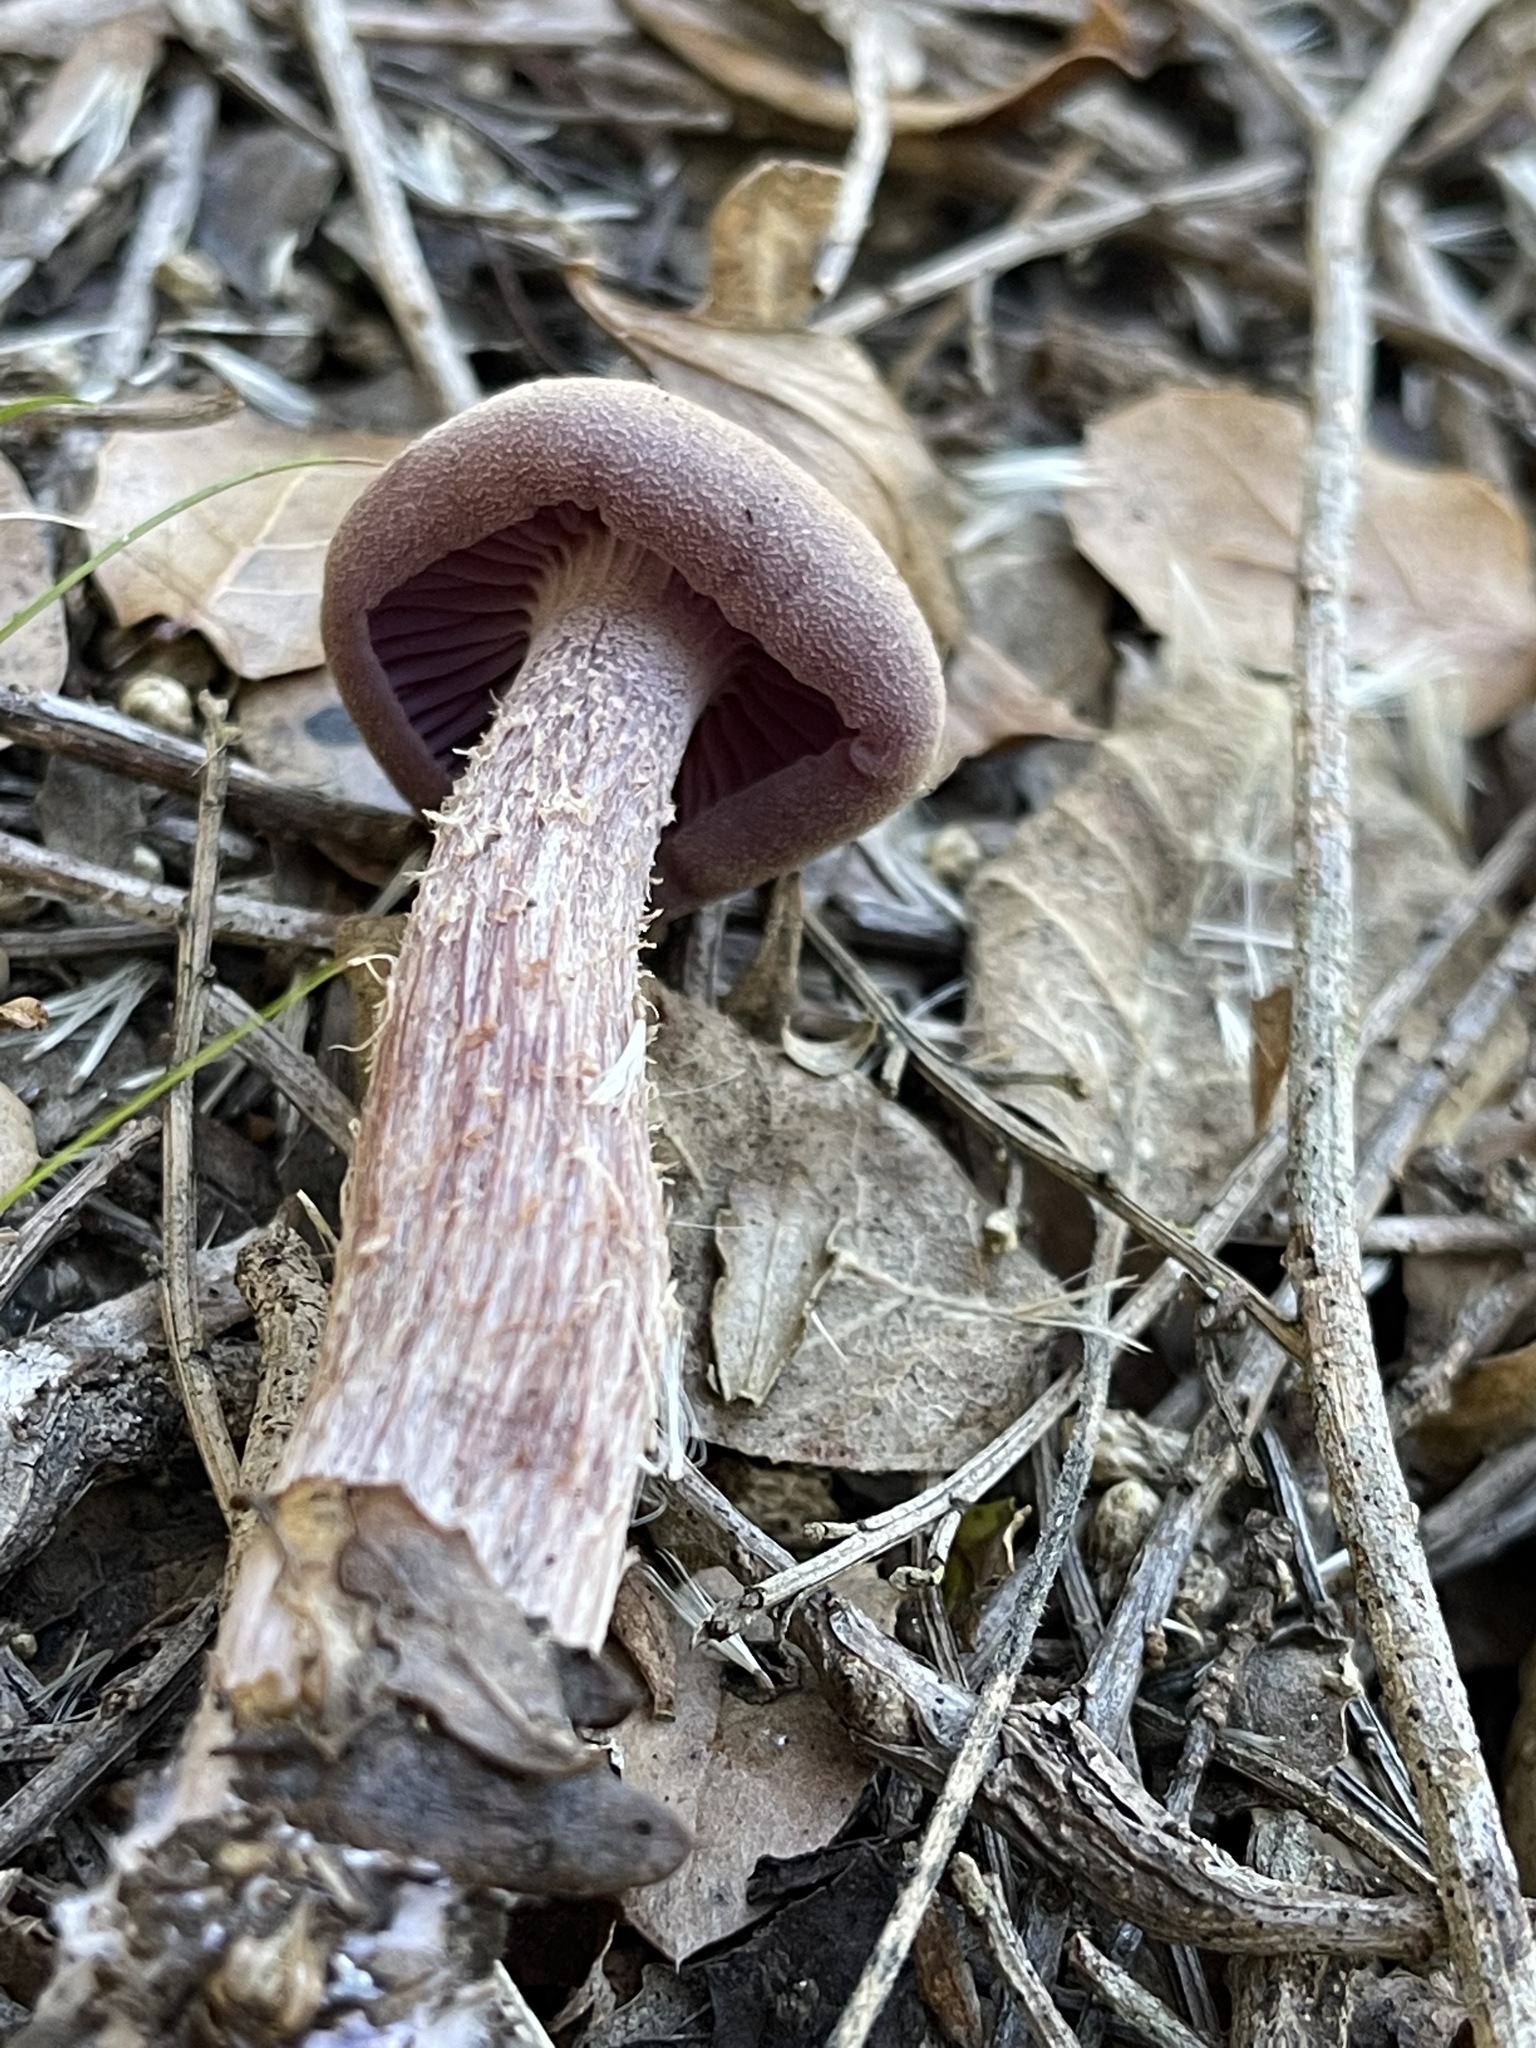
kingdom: Fungi
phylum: Basidiomycota
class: Agaricomycetes
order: Agaricales
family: Hydnangiaceae
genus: Laccaria
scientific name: Laccaria amethysteo-occidentalis
